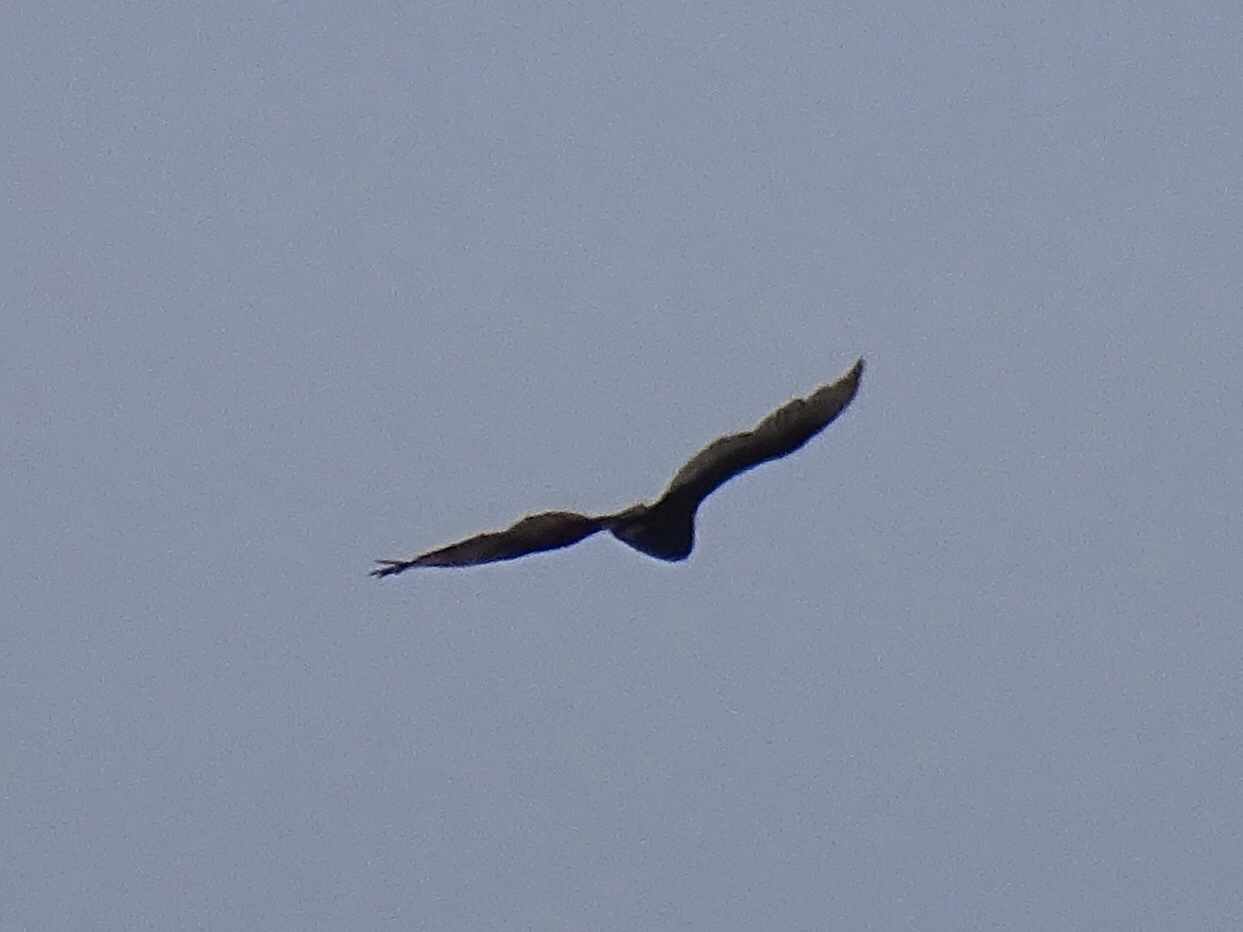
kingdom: Animalia
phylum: Chordata
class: Aves
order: Accipitriformes
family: Cathartidae
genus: Cathartes
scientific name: Cathartes aura
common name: Turkey vulture
